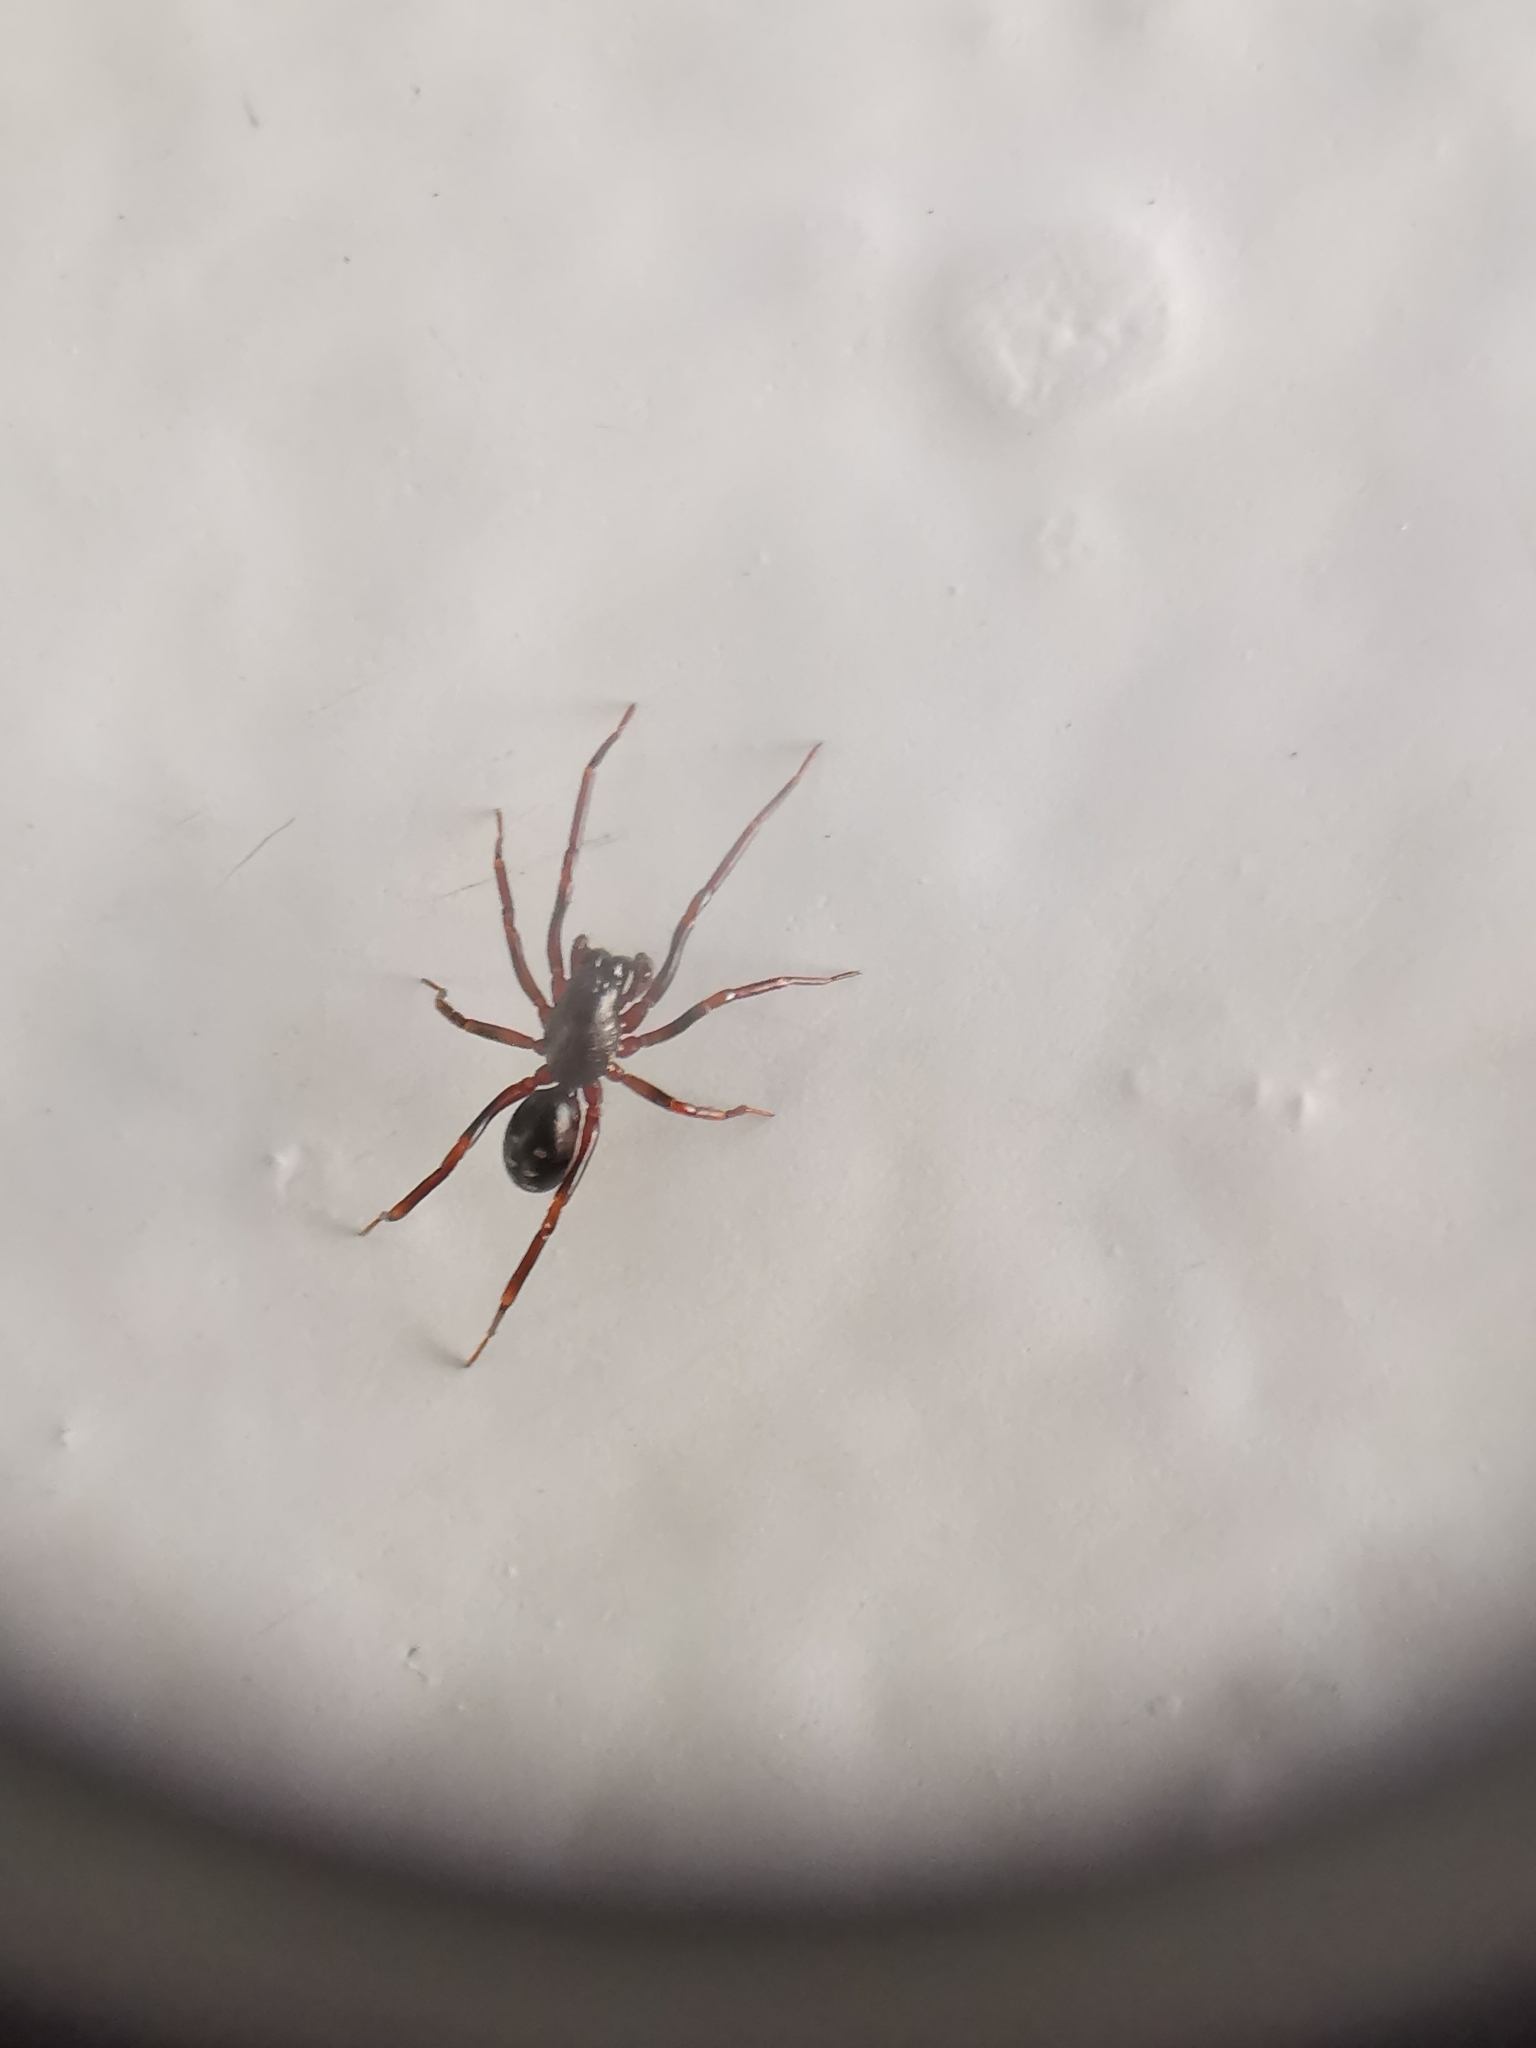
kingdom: Animalia
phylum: Arthropoda
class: Arachnida
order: Araneae
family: Liocranidae
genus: Oedignatha
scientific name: Oedignatha scrobiculata
